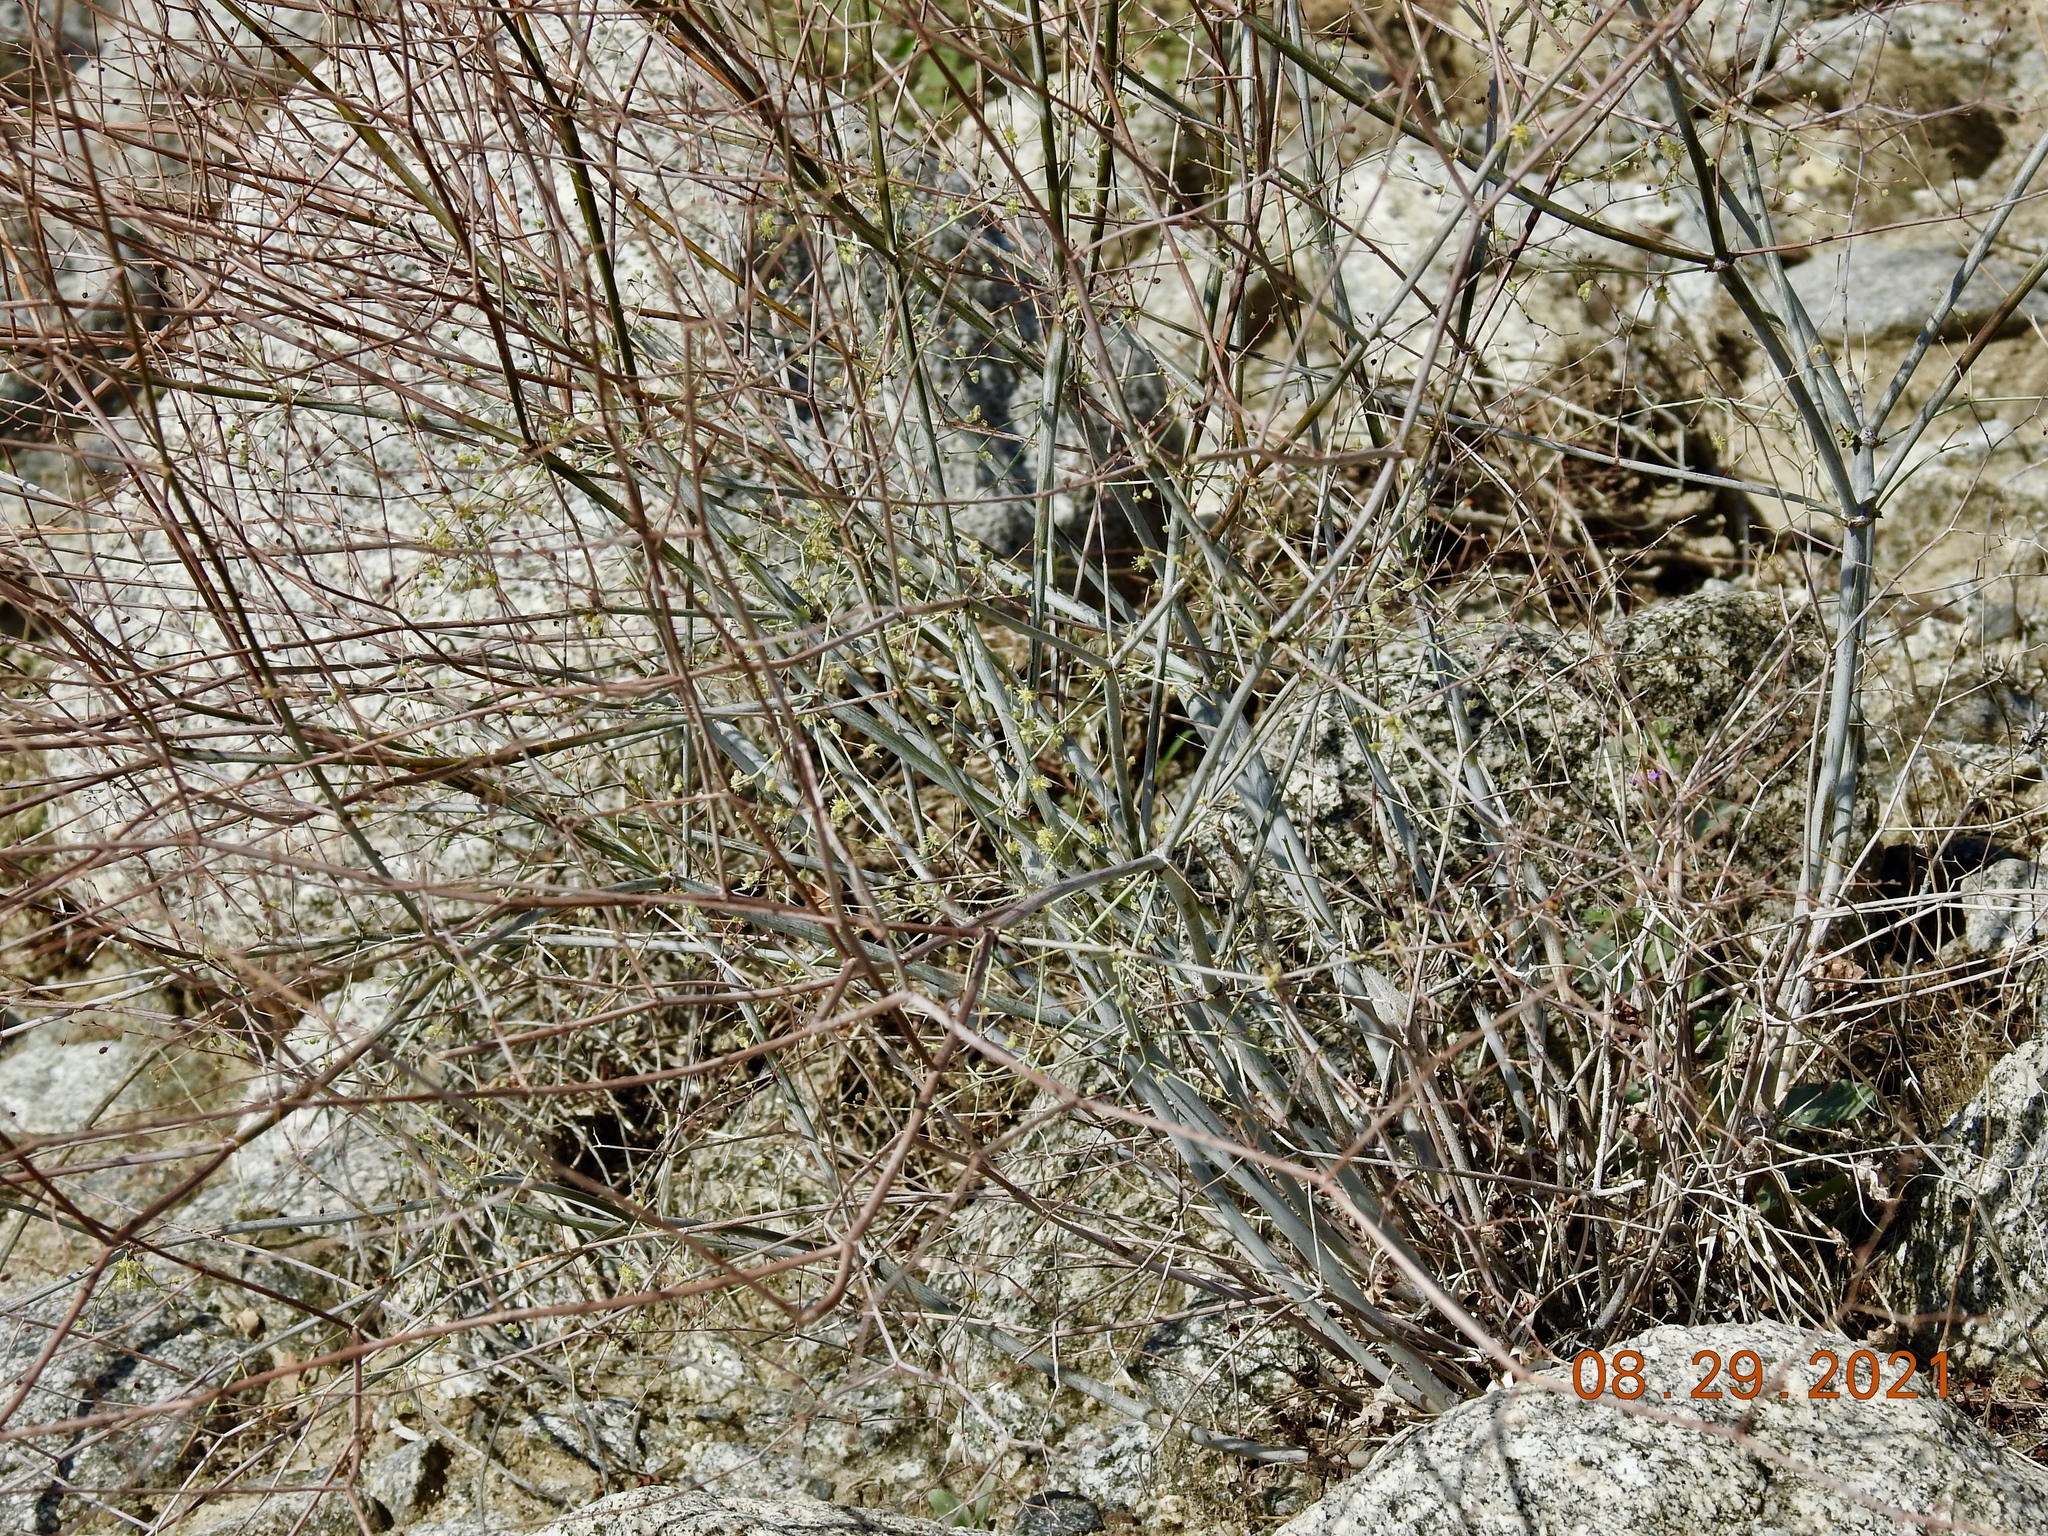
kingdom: Plantae
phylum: Tracheophyta
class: Magnoliopsida
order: Caryophyllales
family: Polygonaceae
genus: Eriogonum
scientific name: Eriogonum inflatum
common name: Desert trumpet
